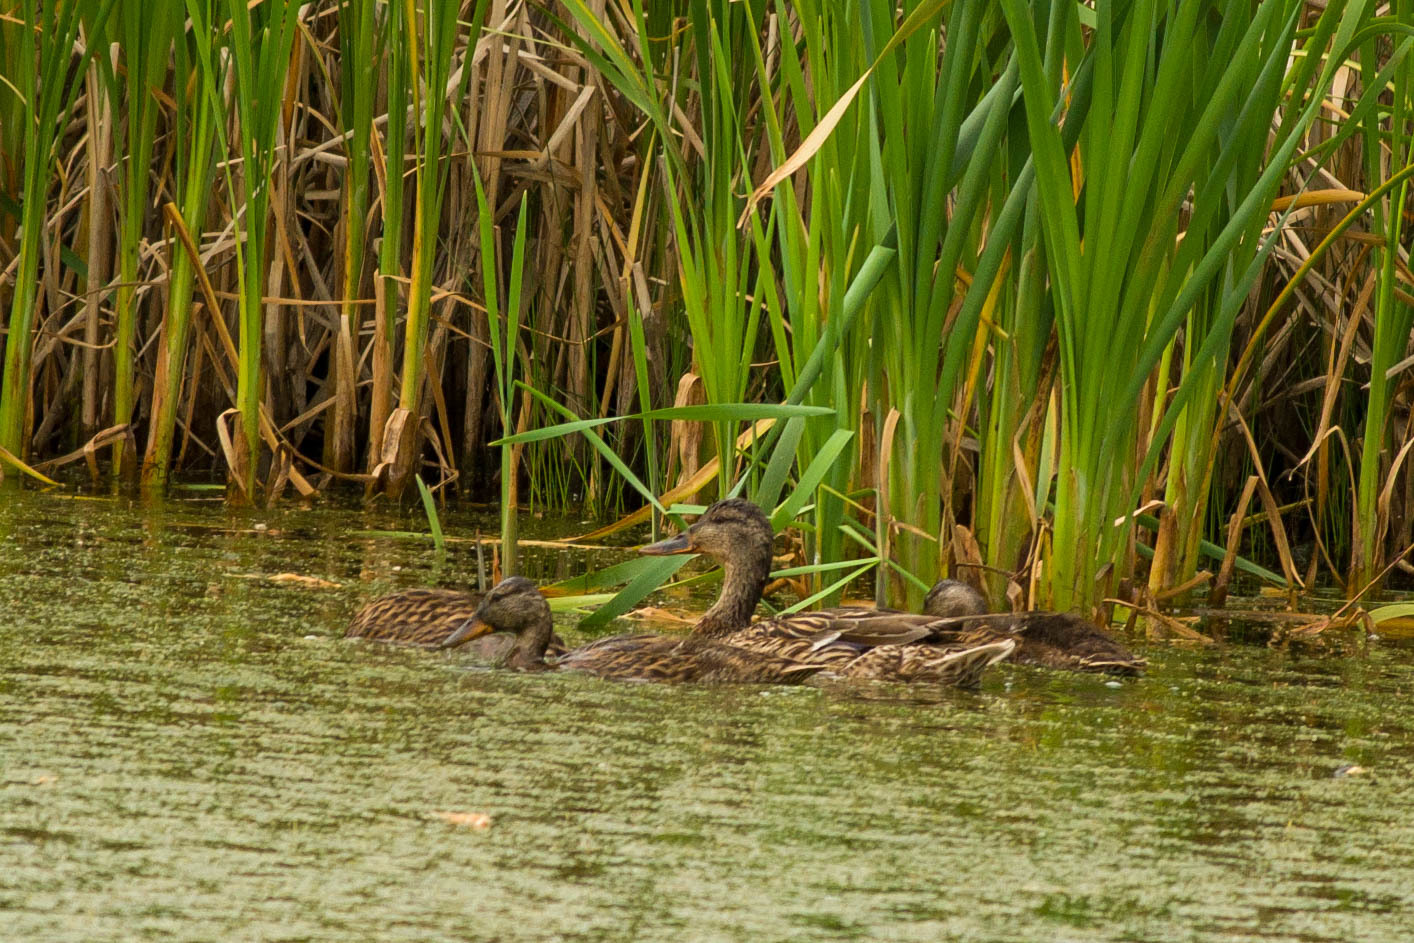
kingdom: Animalia
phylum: Chordata
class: Aves
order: Anseriformes
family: Anatidae
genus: Anas
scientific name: Anas platyrhynchos
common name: Mallard
